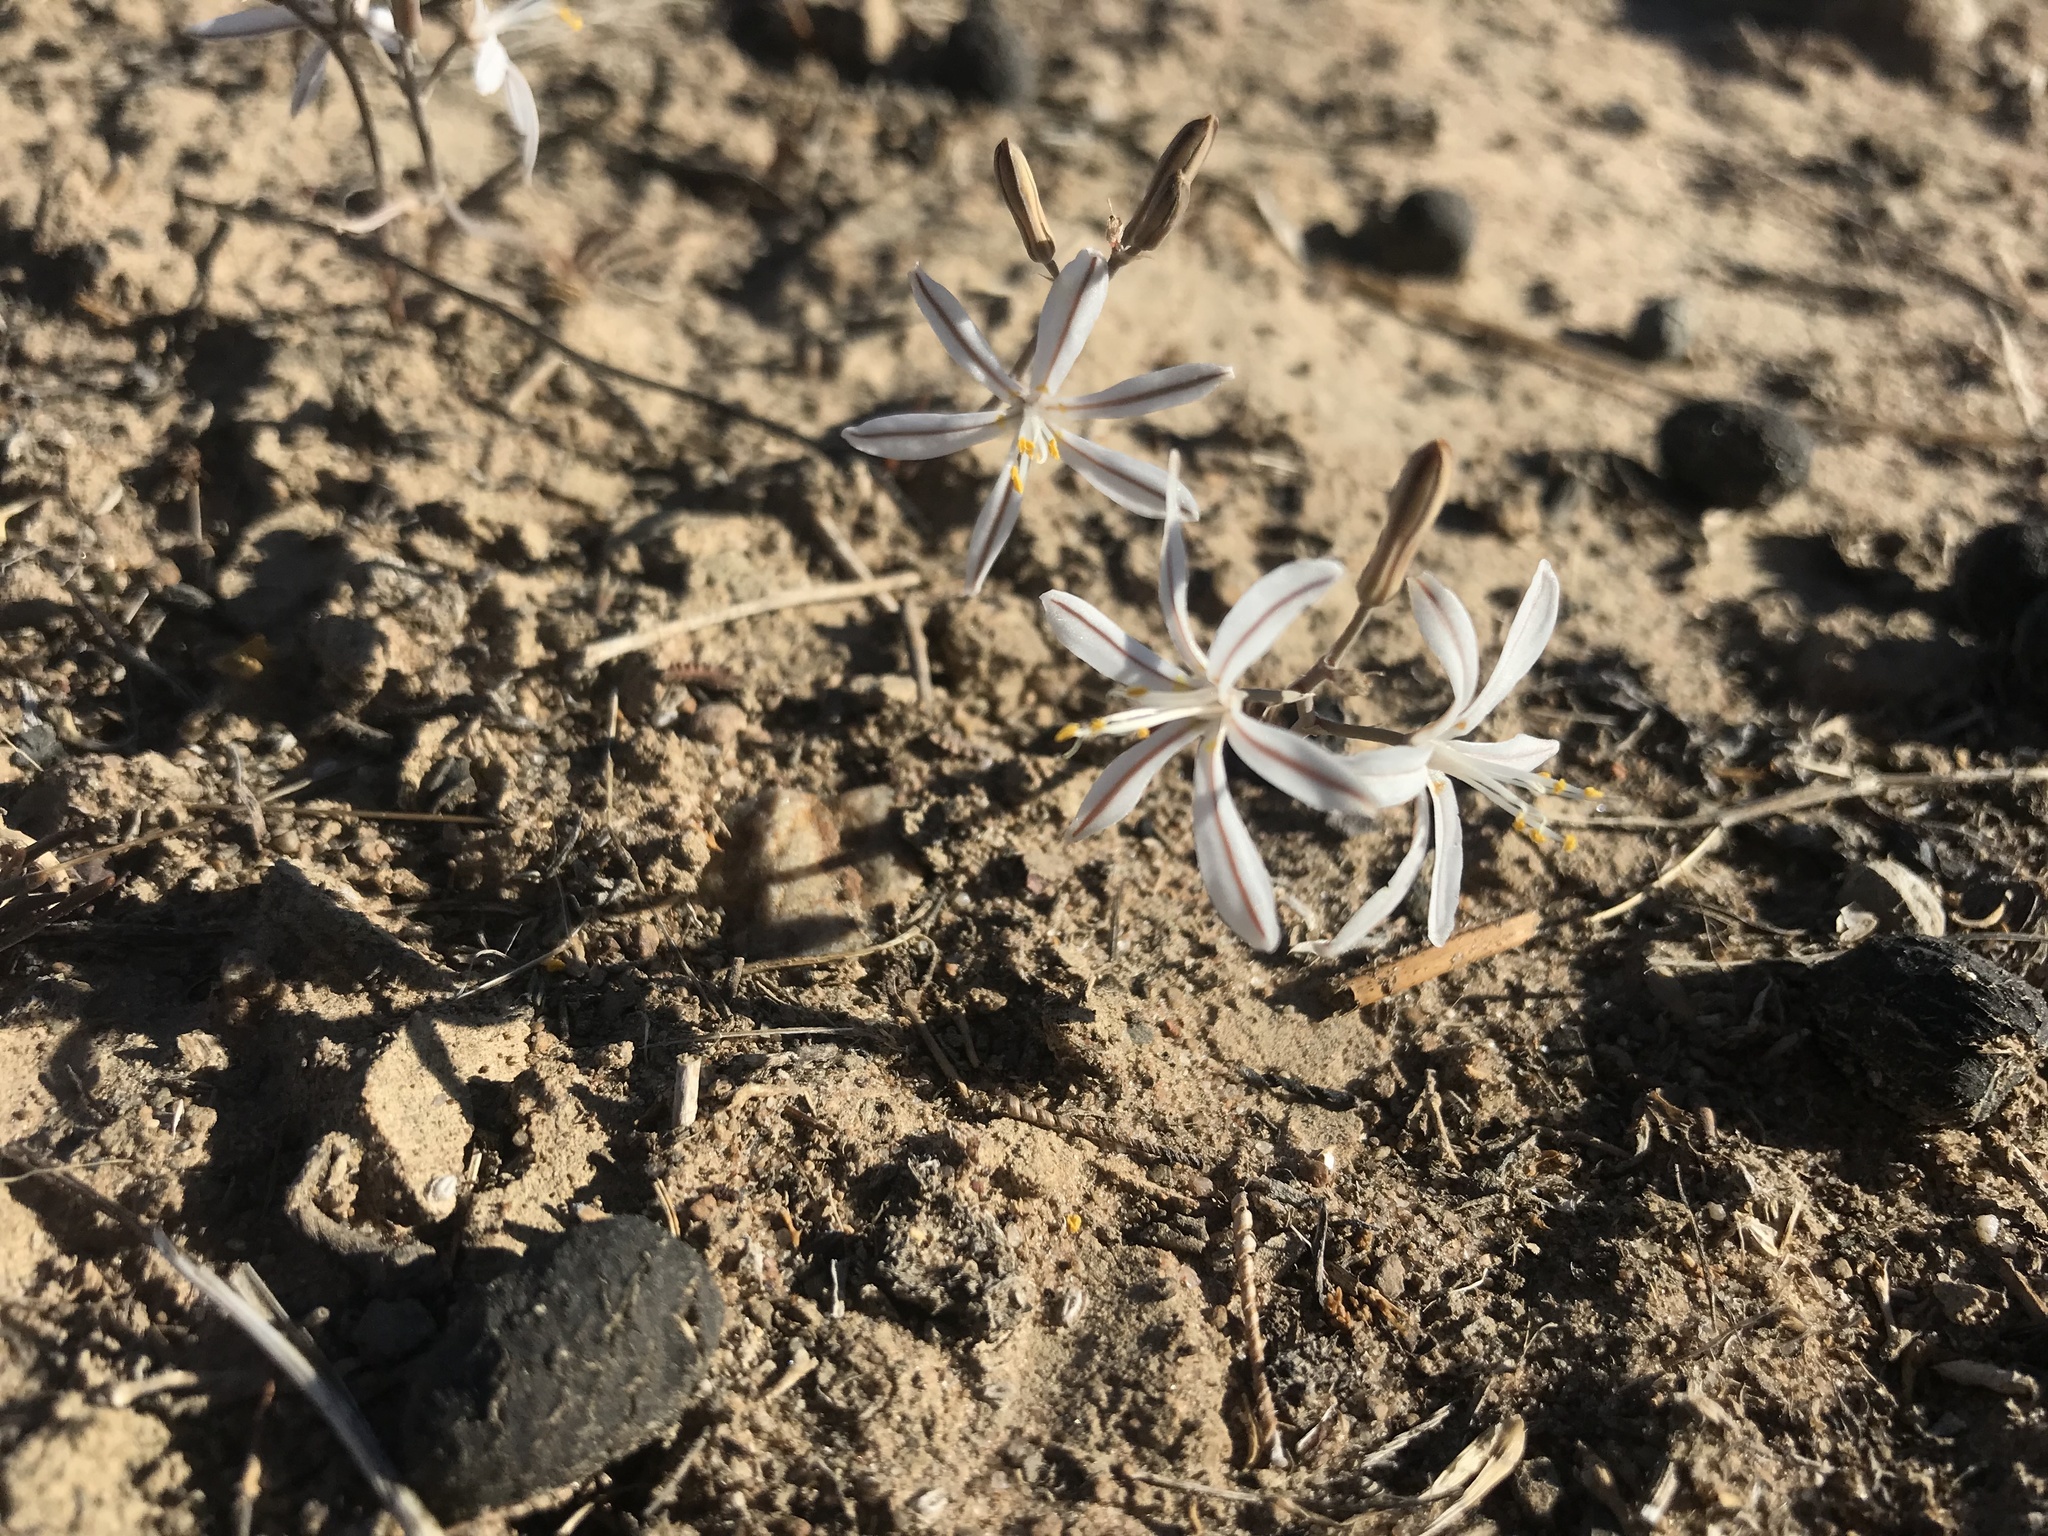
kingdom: Plantae
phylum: Tracheophyta
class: Liliopsida
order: Asparagales
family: Asphodelaceae
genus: Trachyandra
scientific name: Trachyandra prolifera
